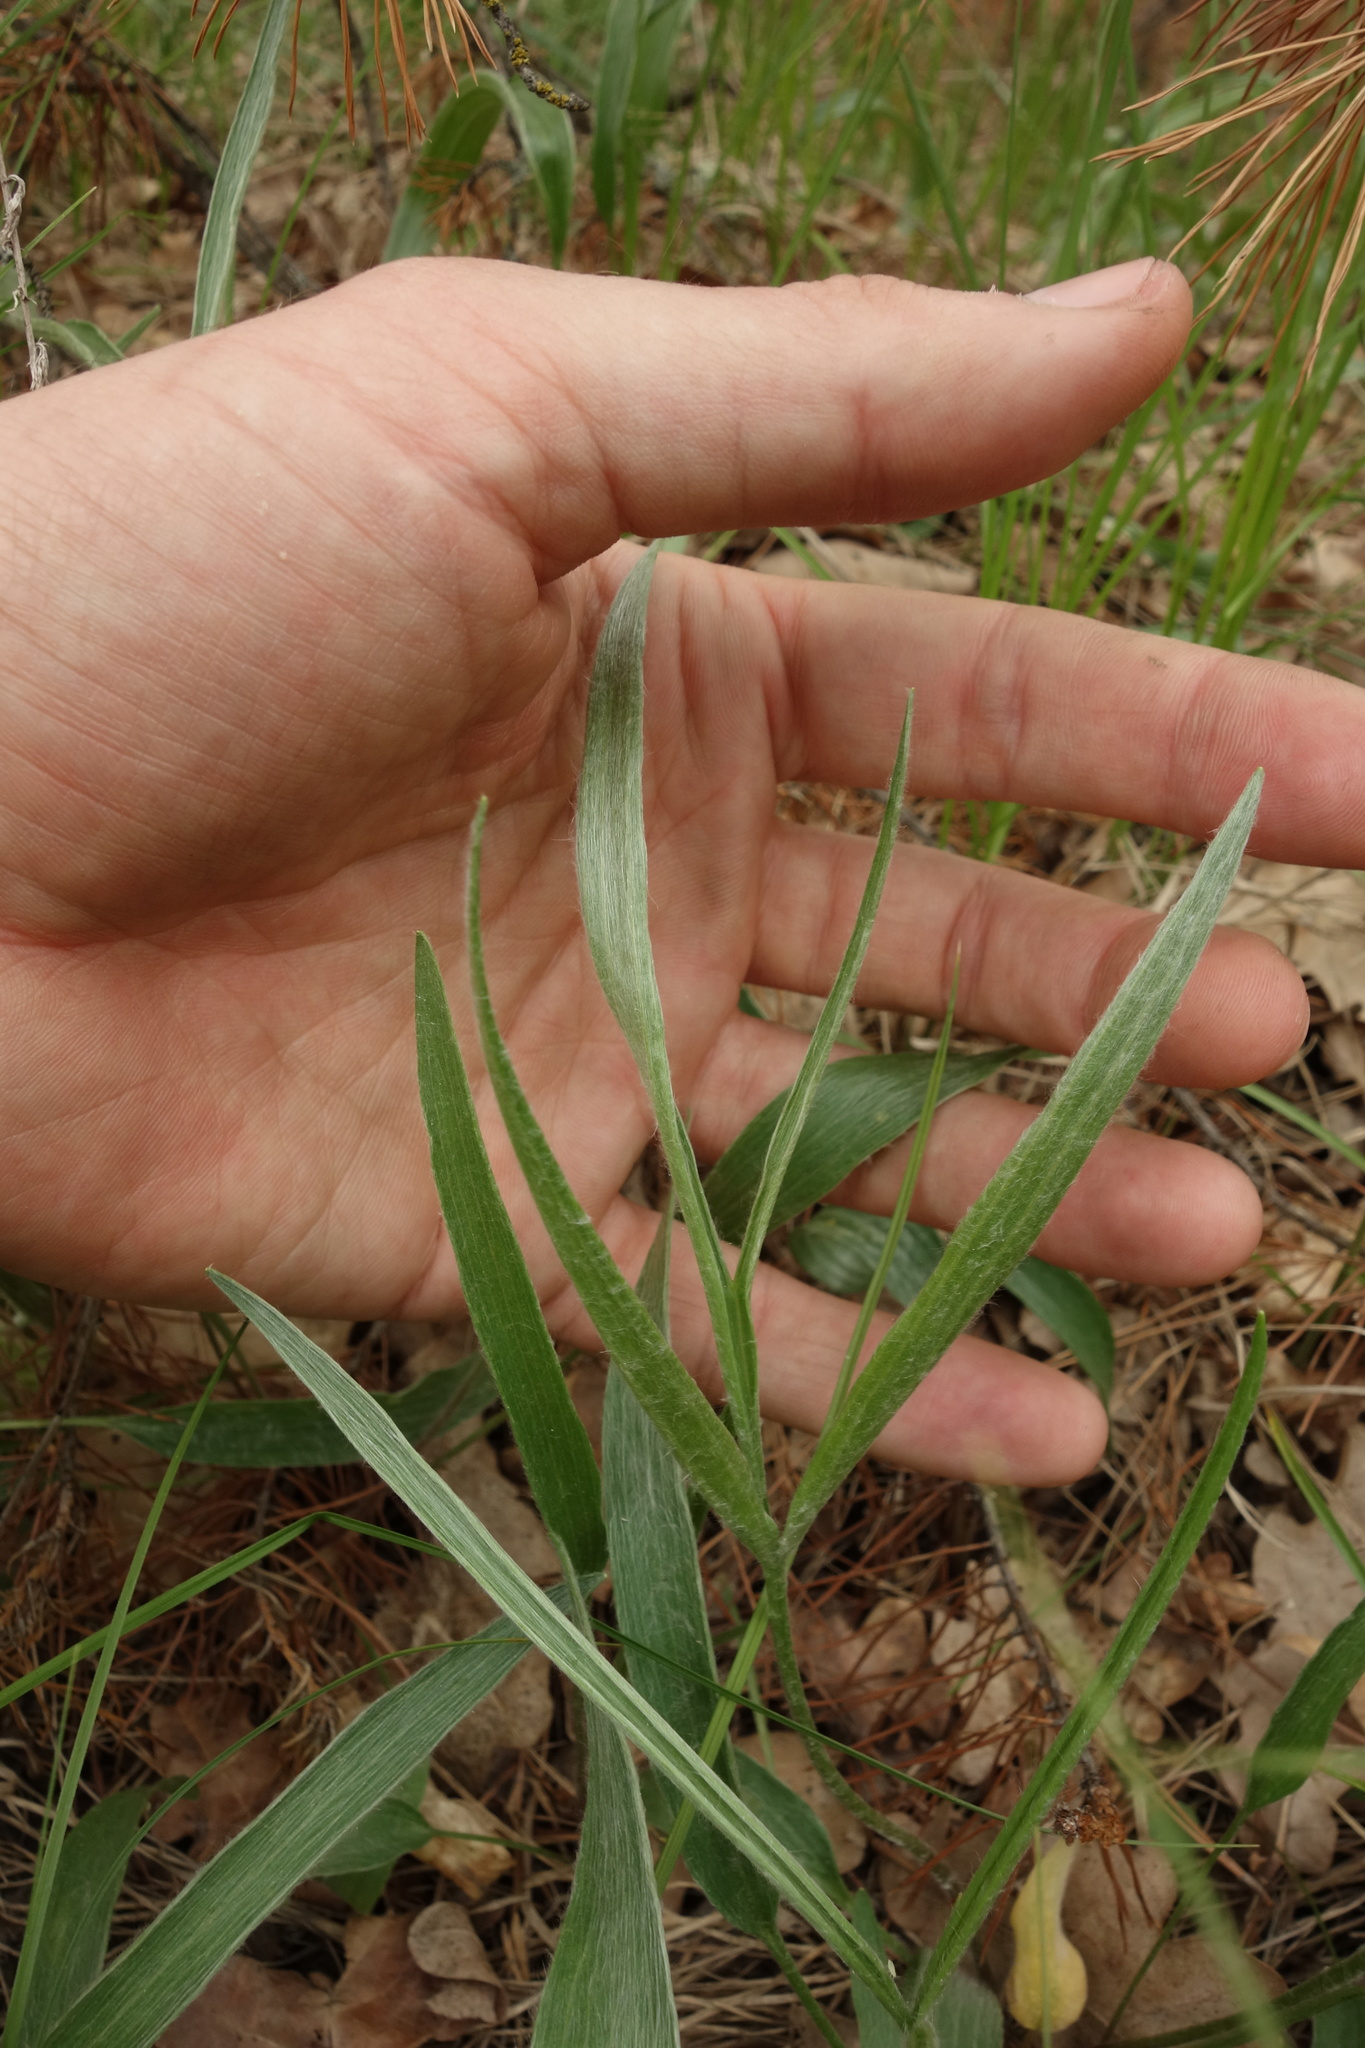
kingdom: Plantae
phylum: Tracheophyta
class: Magnoliopsida
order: Ranunculales
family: Ranunculaceae
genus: Ranunculus
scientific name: Ranunculus illyricus
